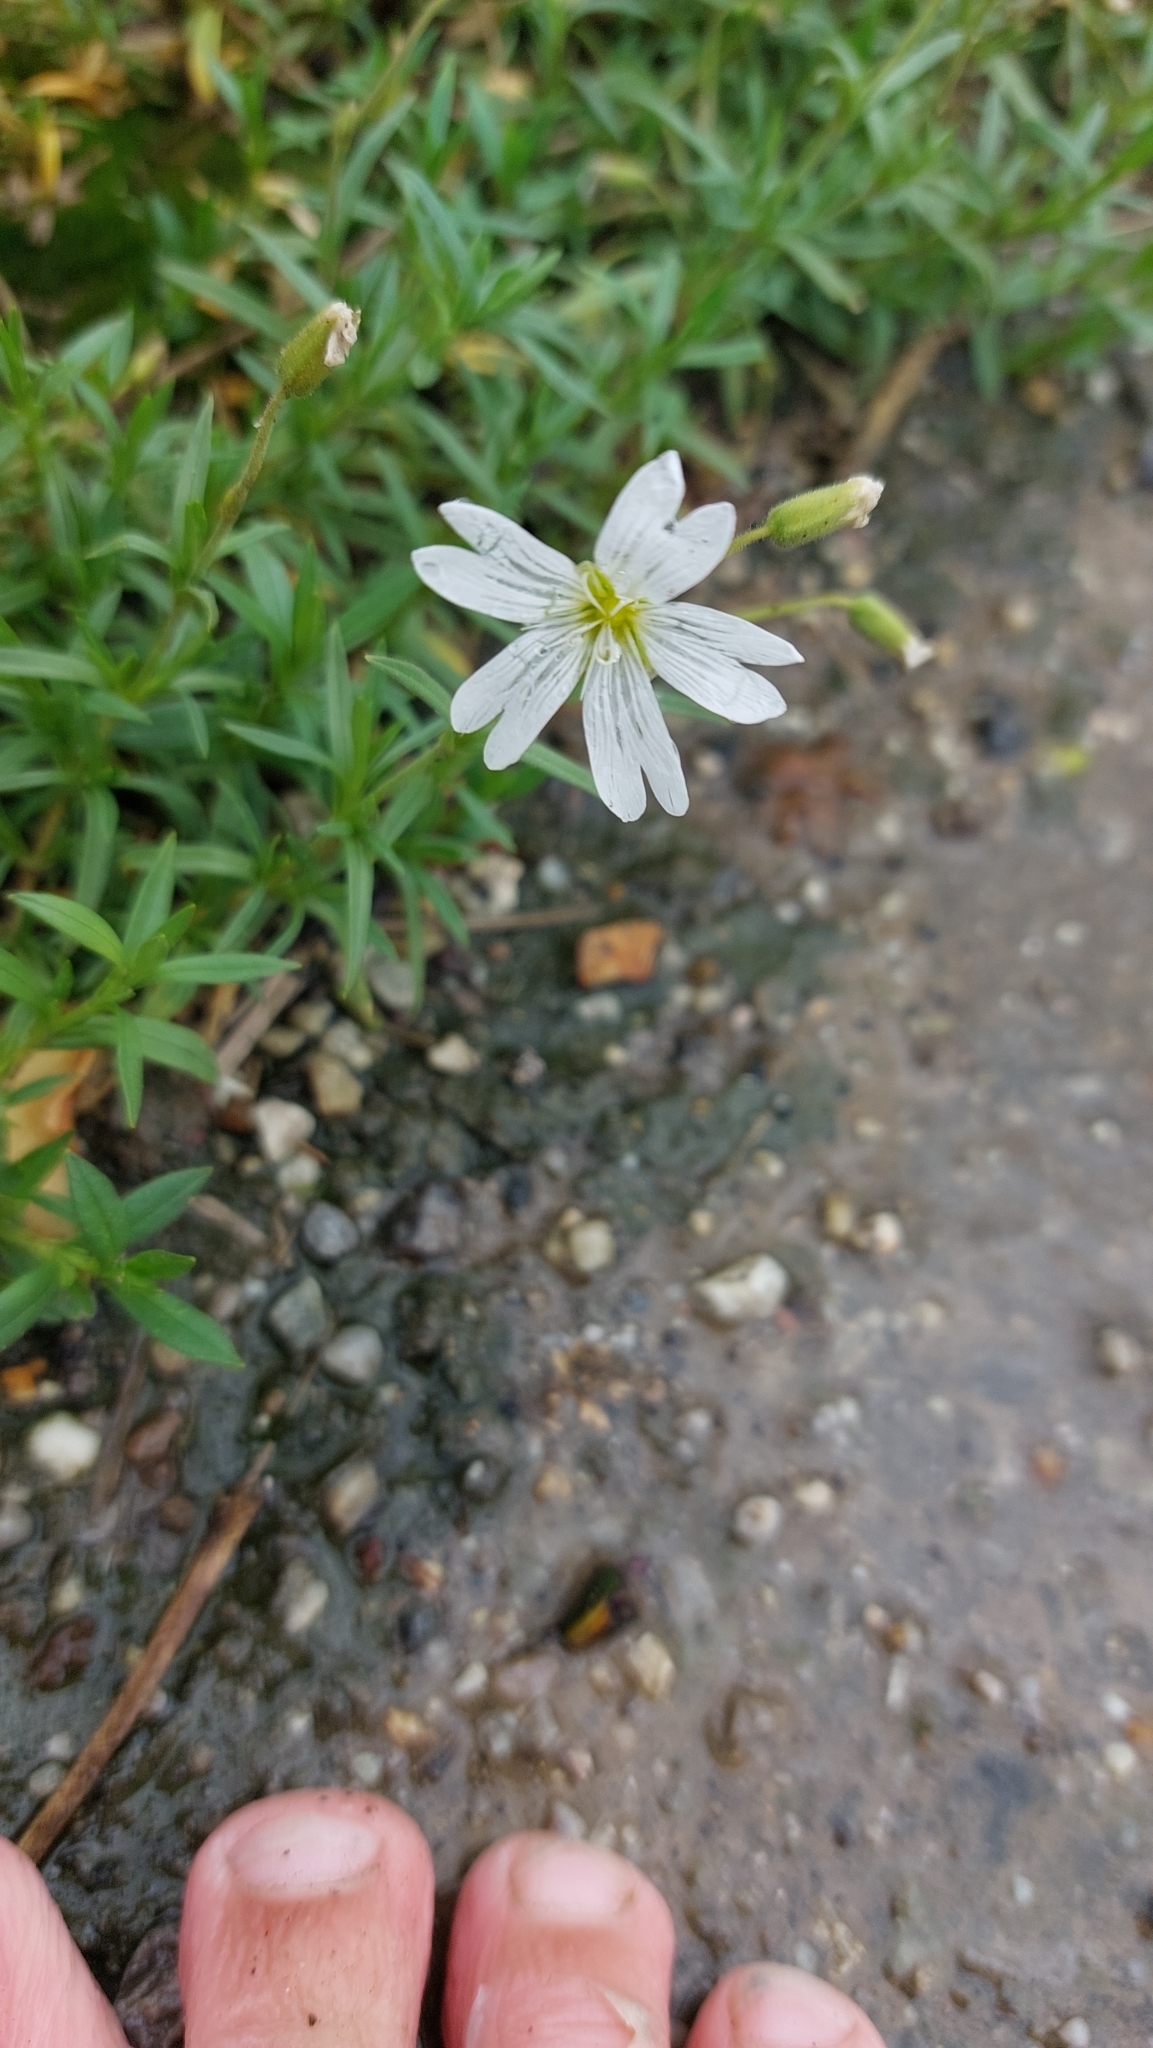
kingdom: Plantae
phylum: Tracheophyta
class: Magnoliopsida
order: Caryophyllales
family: Caryophyllaceae
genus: Cerastium
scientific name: Cerastium arvense
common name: Field mouse-ear
